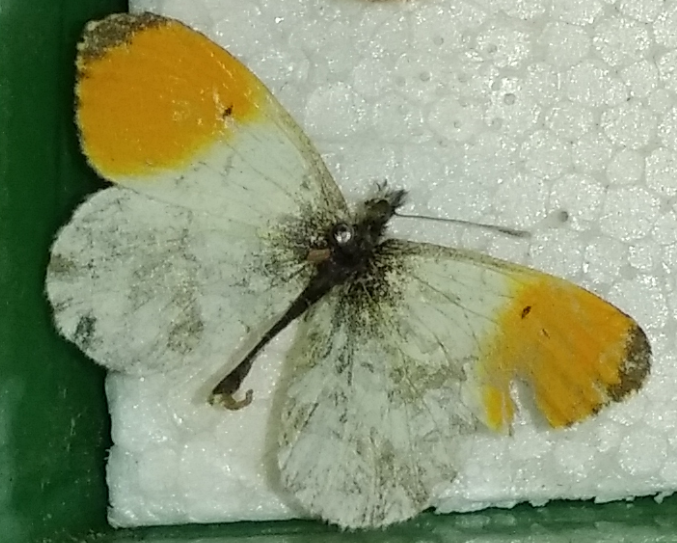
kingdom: Animalia
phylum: Arthropoda
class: Insecta
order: Lepidoptera
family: Pieridae
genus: Anthocharis
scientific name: Anthocharis cardamines
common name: Orange-tip
